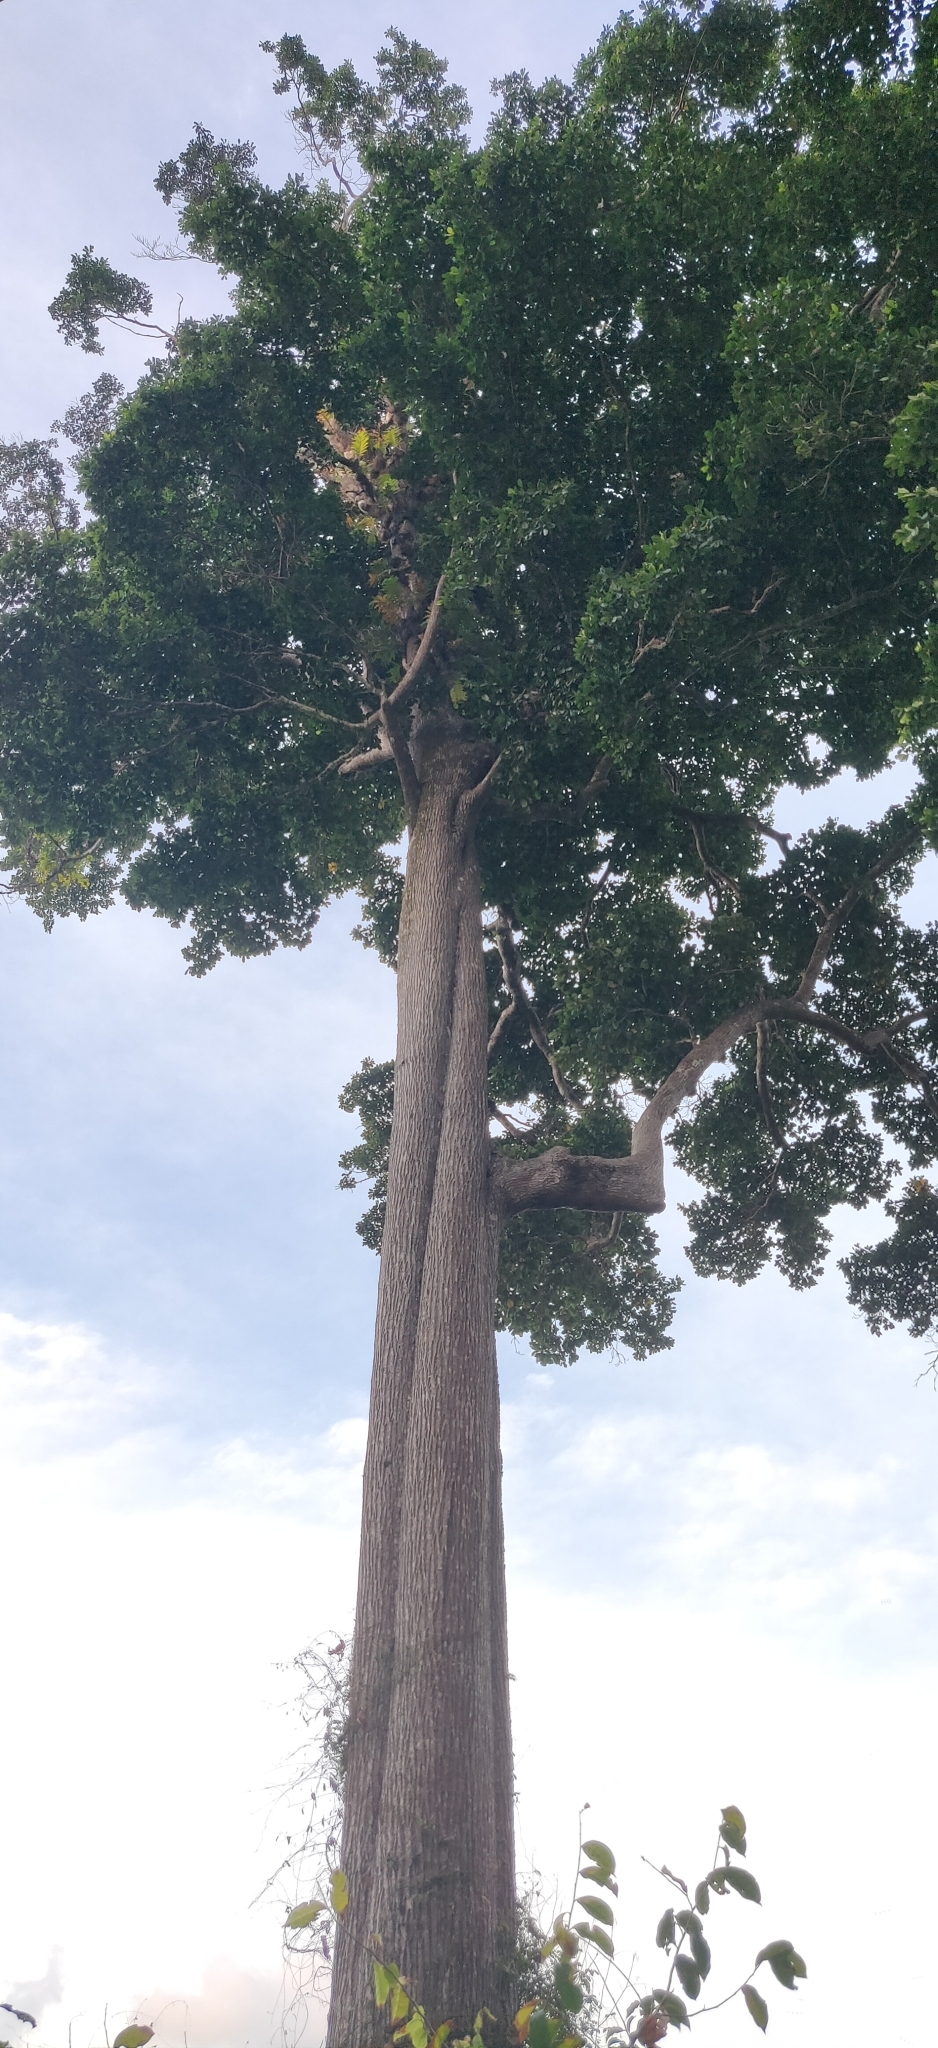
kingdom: Plantae
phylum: Tracheophyta
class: Magnoliopsida
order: Ericales
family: Sapotaceae
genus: Manilkara
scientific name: Manilkara littoralis
